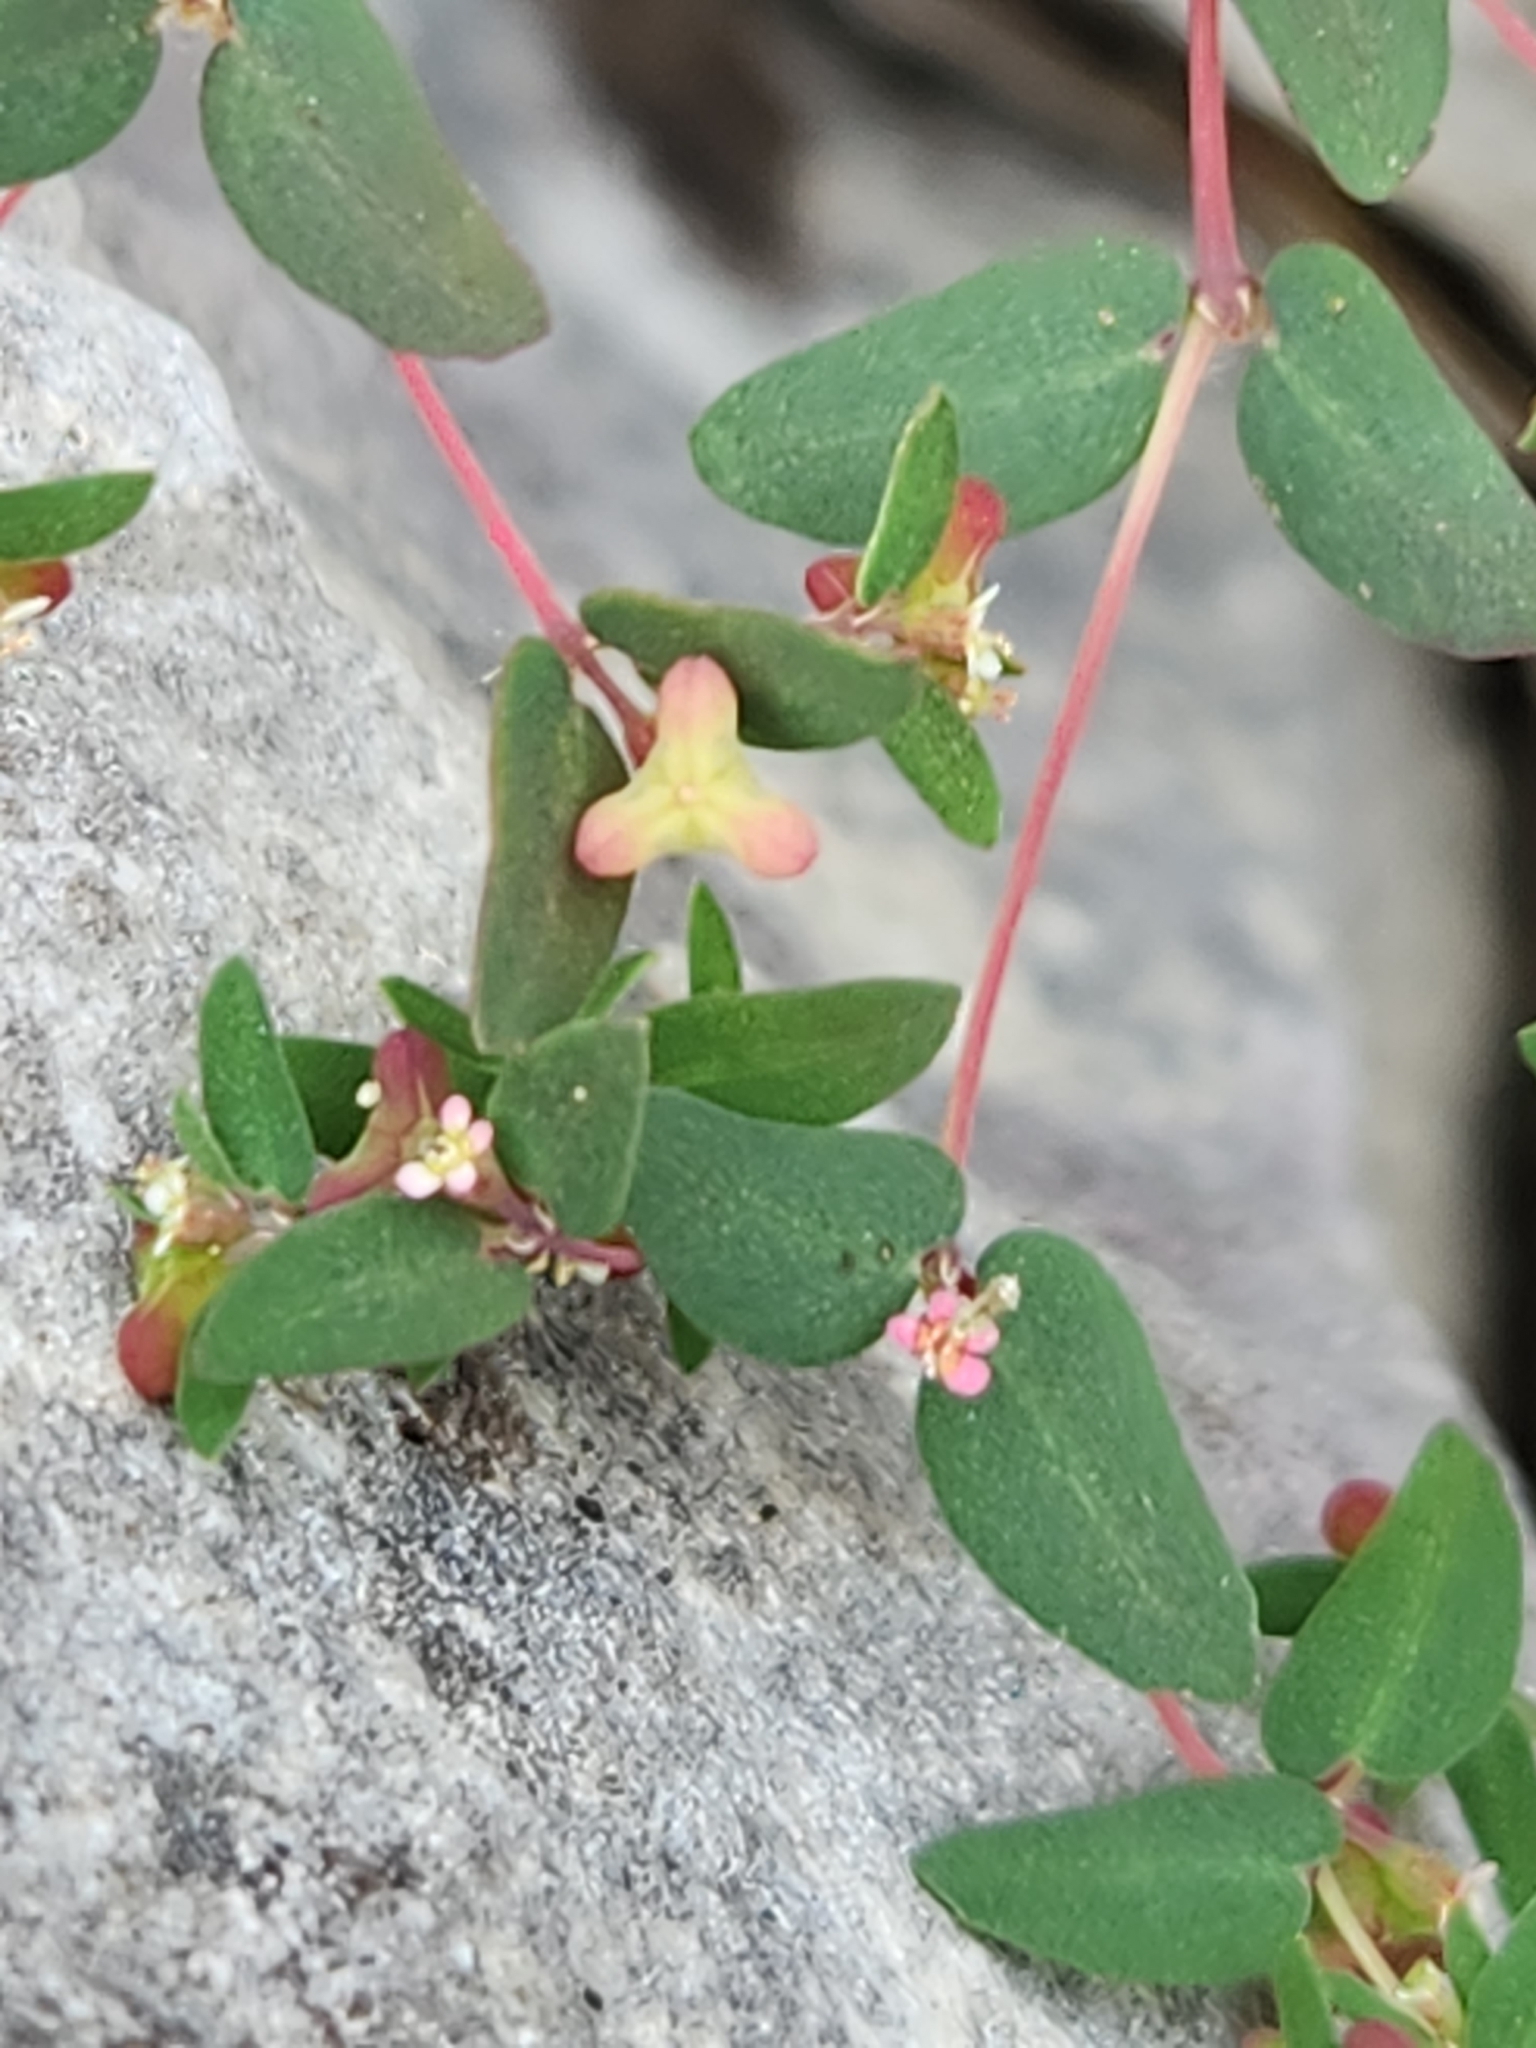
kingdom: Plantae
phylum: Tracheophyta
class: Magnoliopsida
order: Malpighiales
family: Euphorbiaceae
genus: Euphorbia
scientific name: Euphorbia villifera
